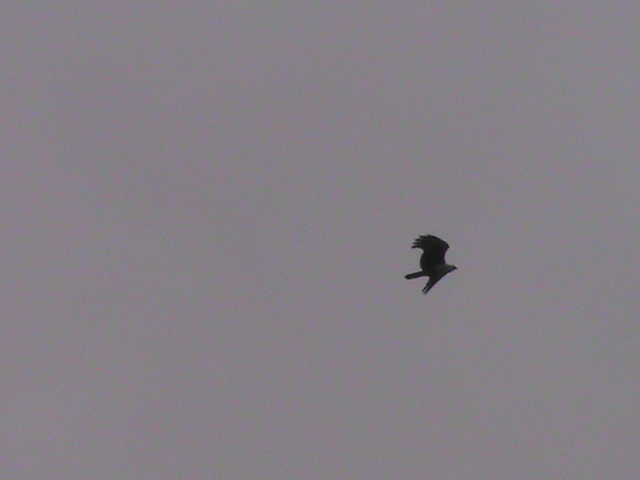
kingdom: Animalia
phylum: Chordata
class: Aves
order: Accipitriformes
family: Accipitridae
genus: Haliastur
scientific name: Haliastur indus
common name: Brahminy kite
